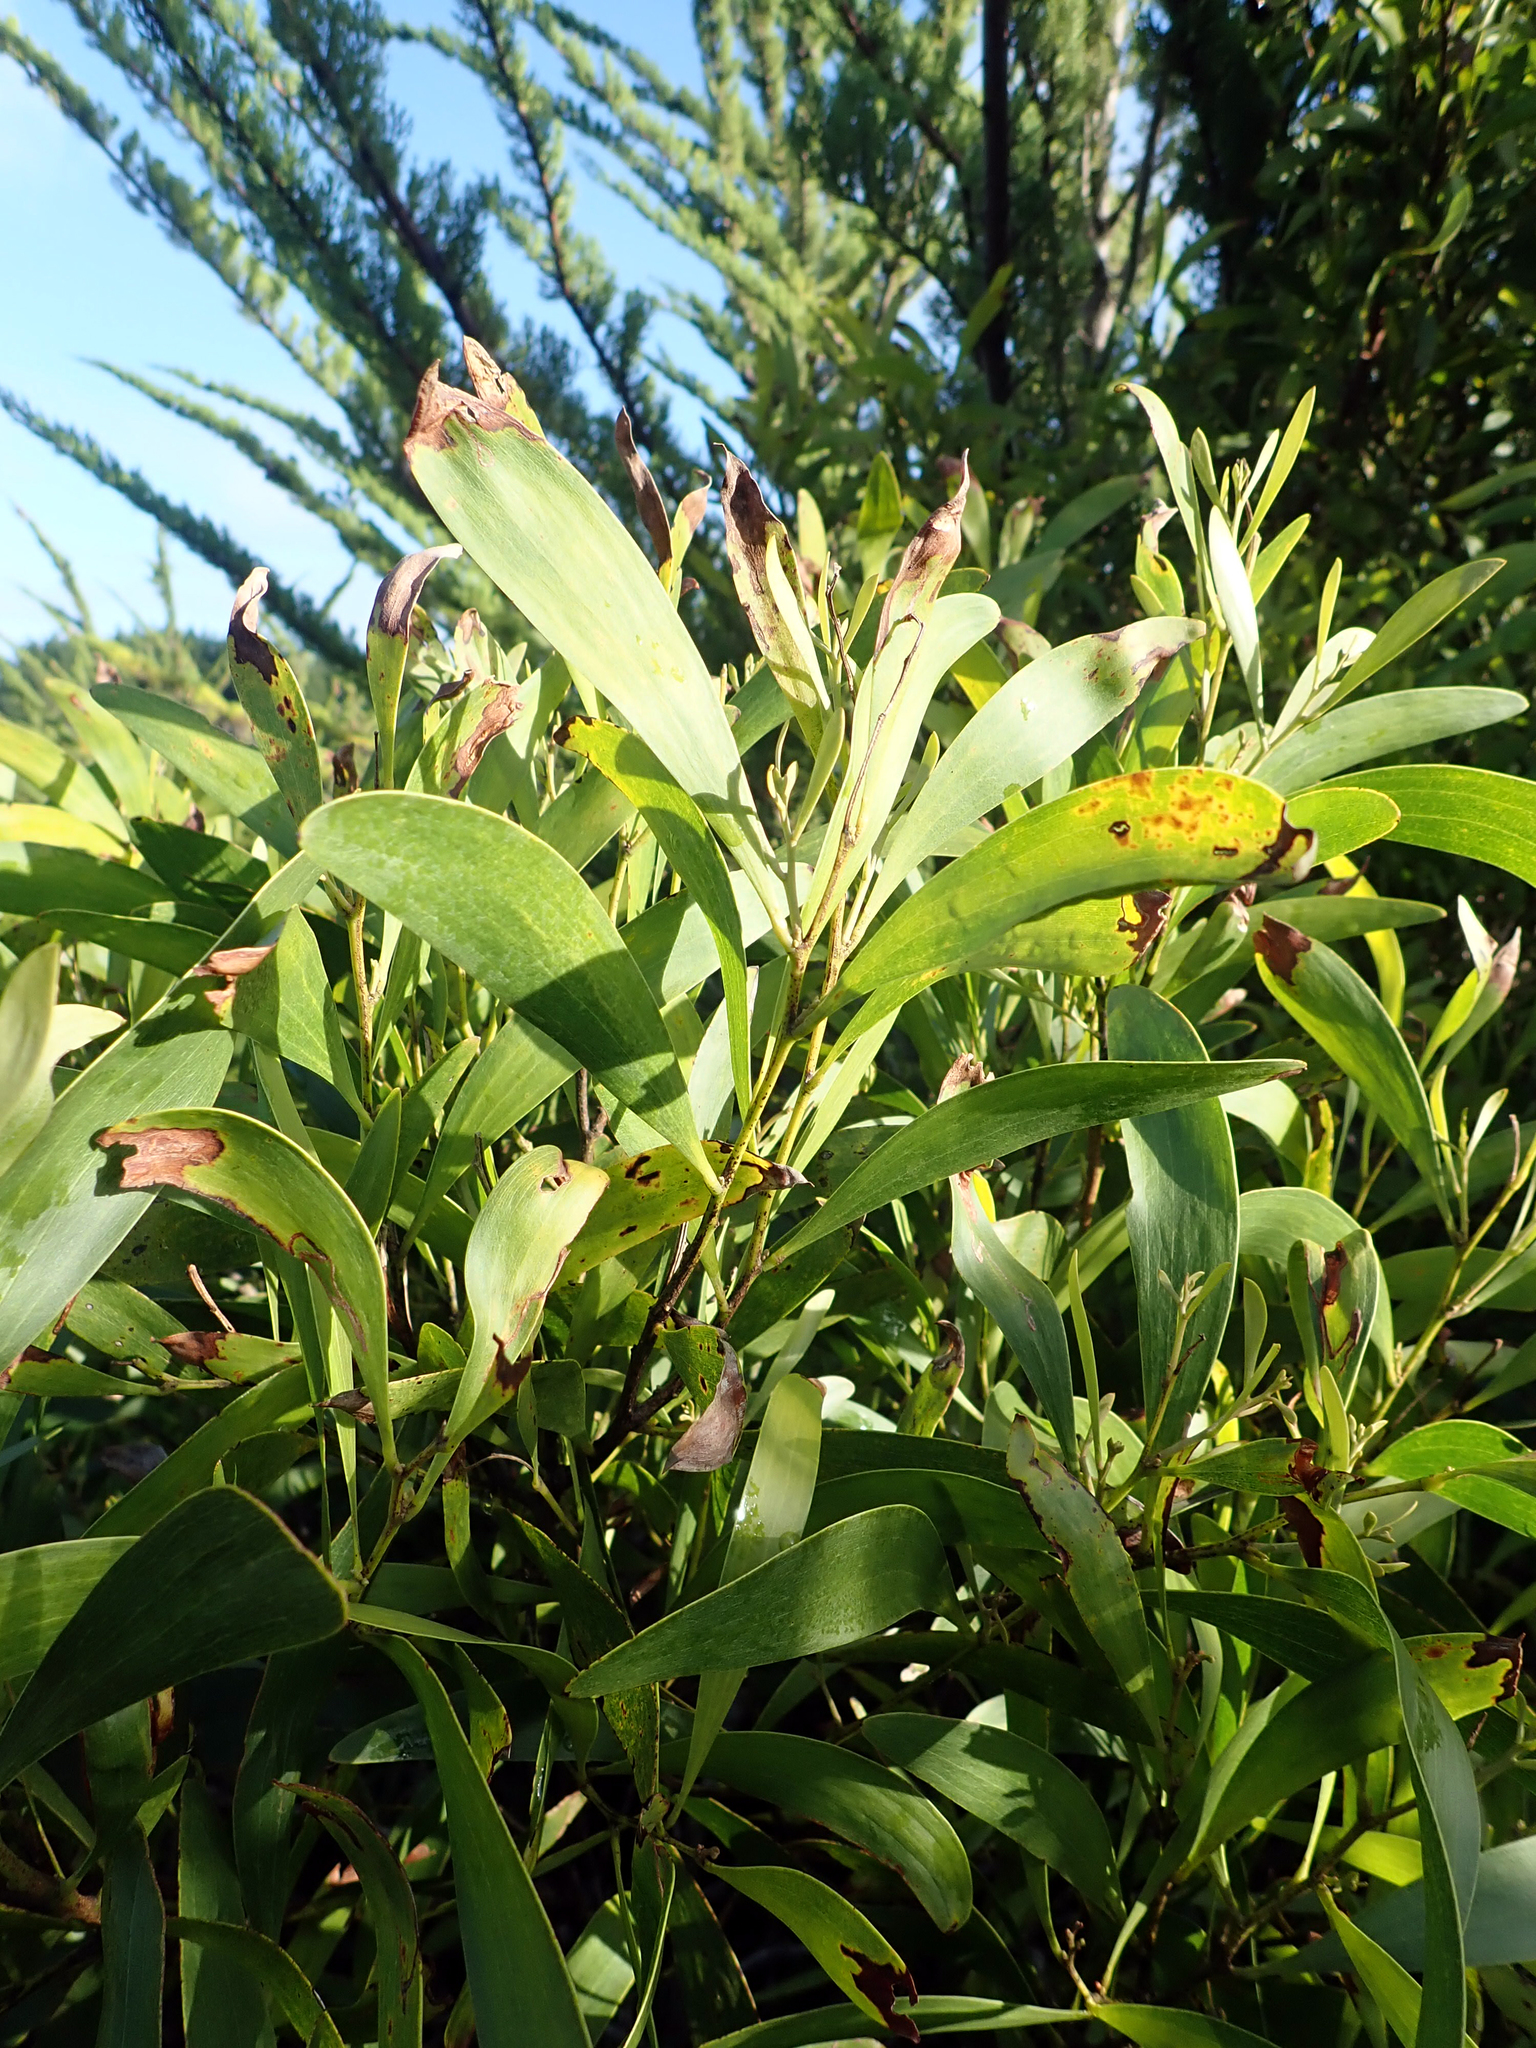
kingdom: Plantae
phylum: Tracheophyta
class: Magnoliopsida
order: Fabales
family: Fabaceae
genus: Acacia
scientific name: Acacia melanoxylon
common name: Blackwood
